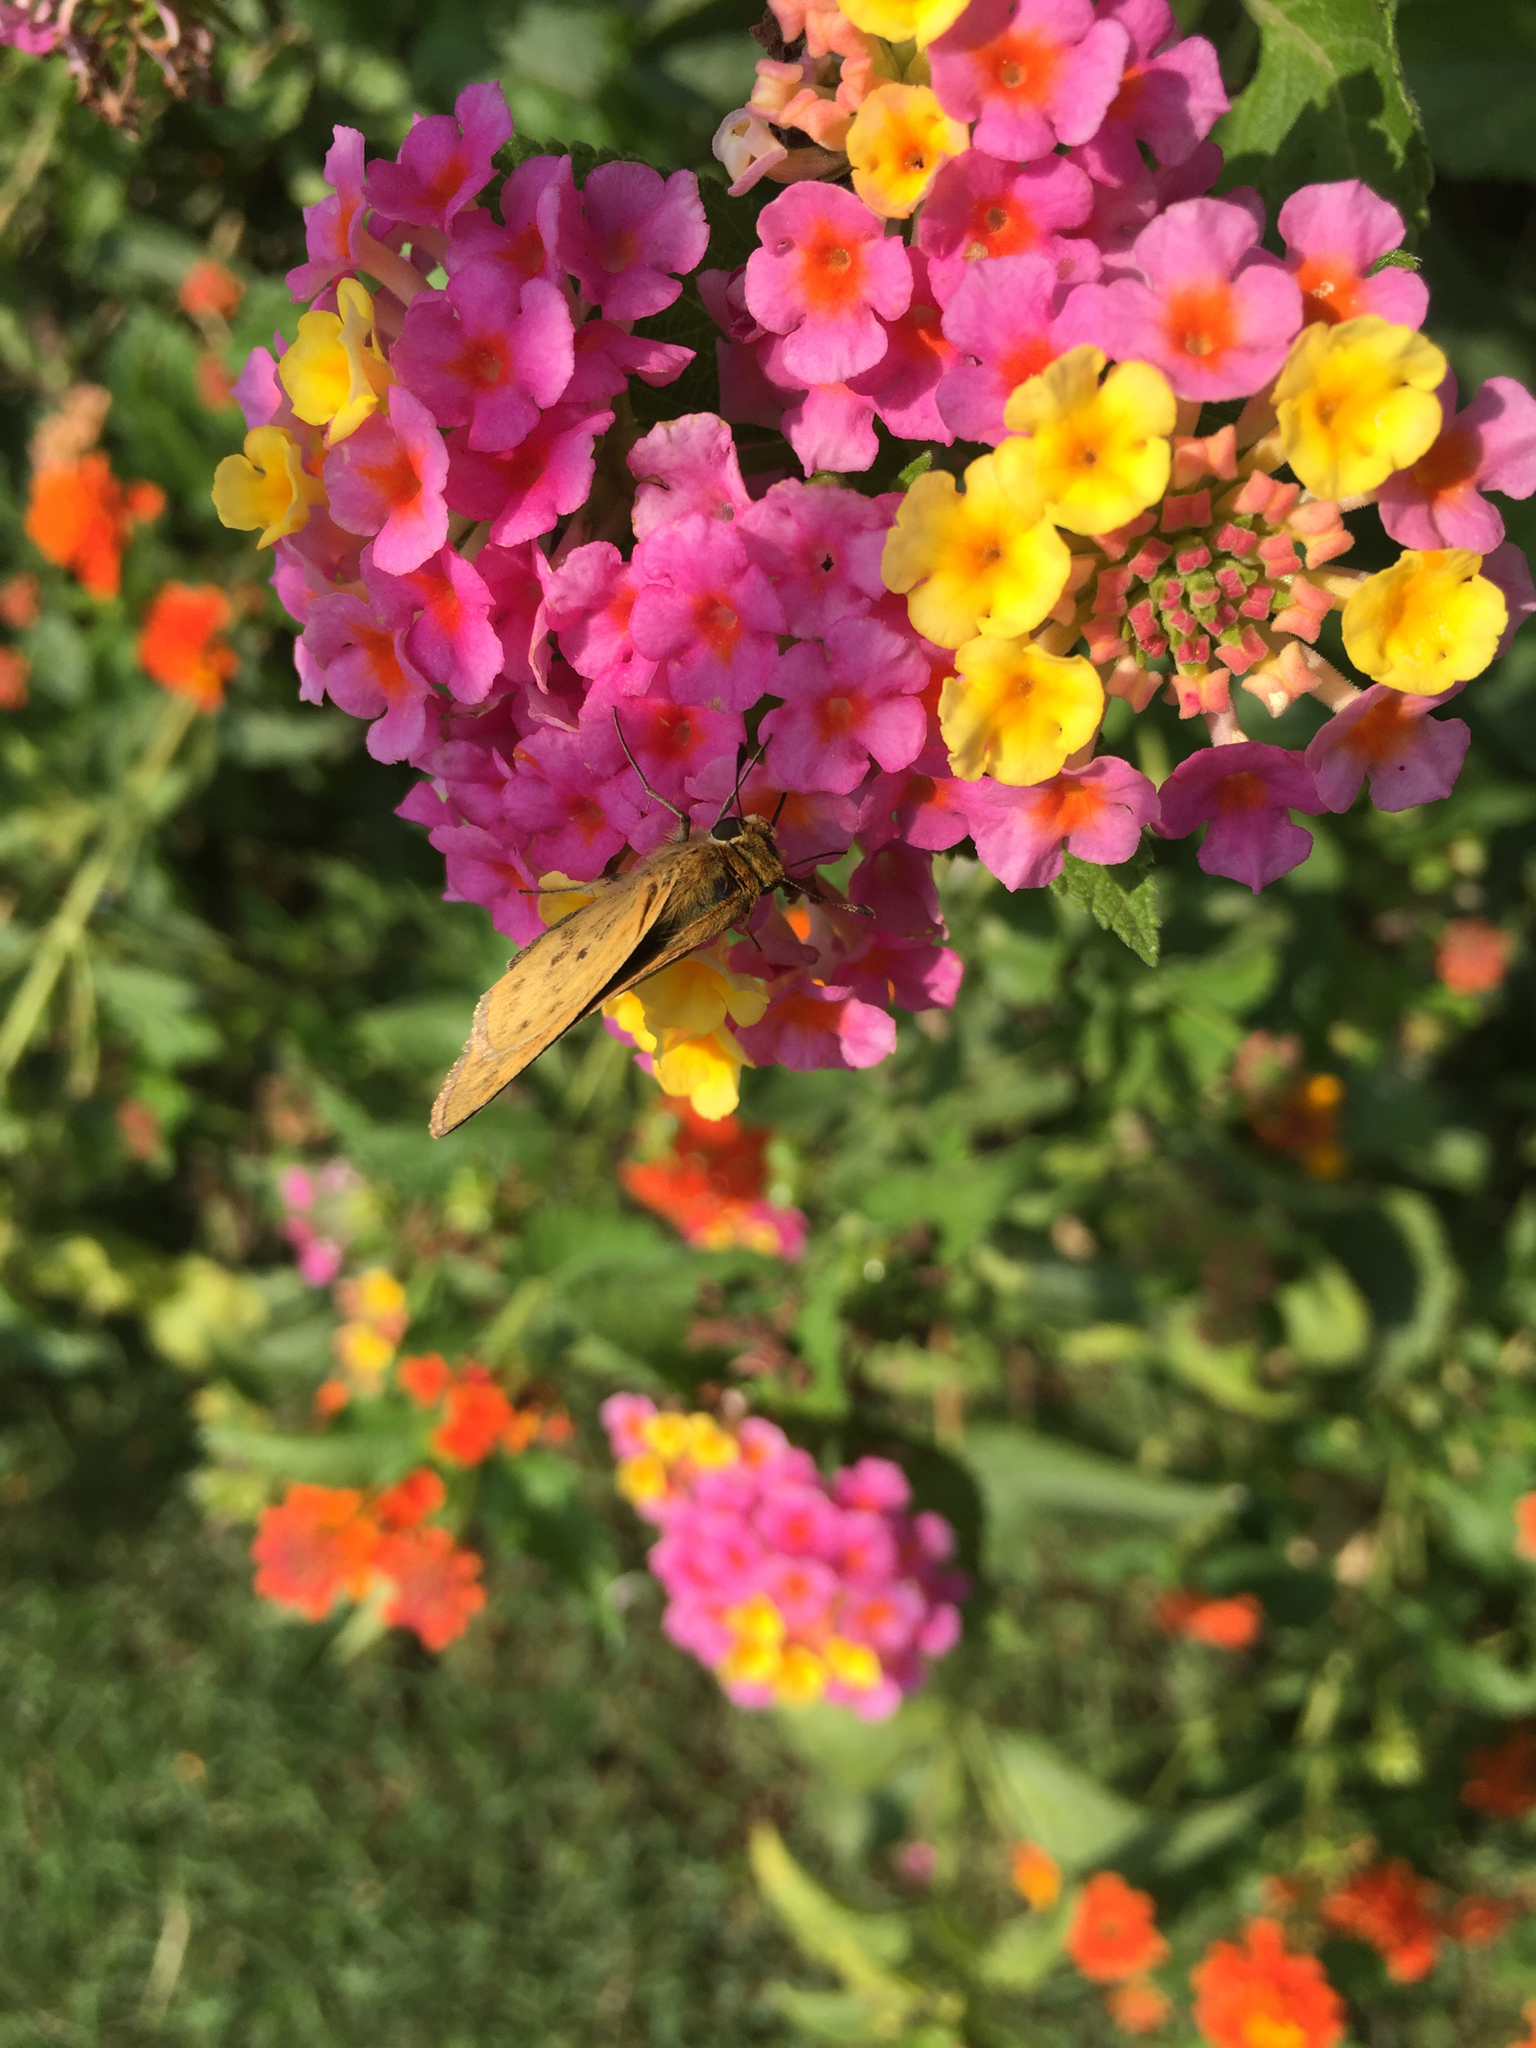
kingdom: Animalia
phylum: Arthropoda
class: Insecta
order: Lepidoptera
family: Hesperiidae
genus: Hylephila
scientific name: Hylephila phyleus
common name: Fiery skipper
